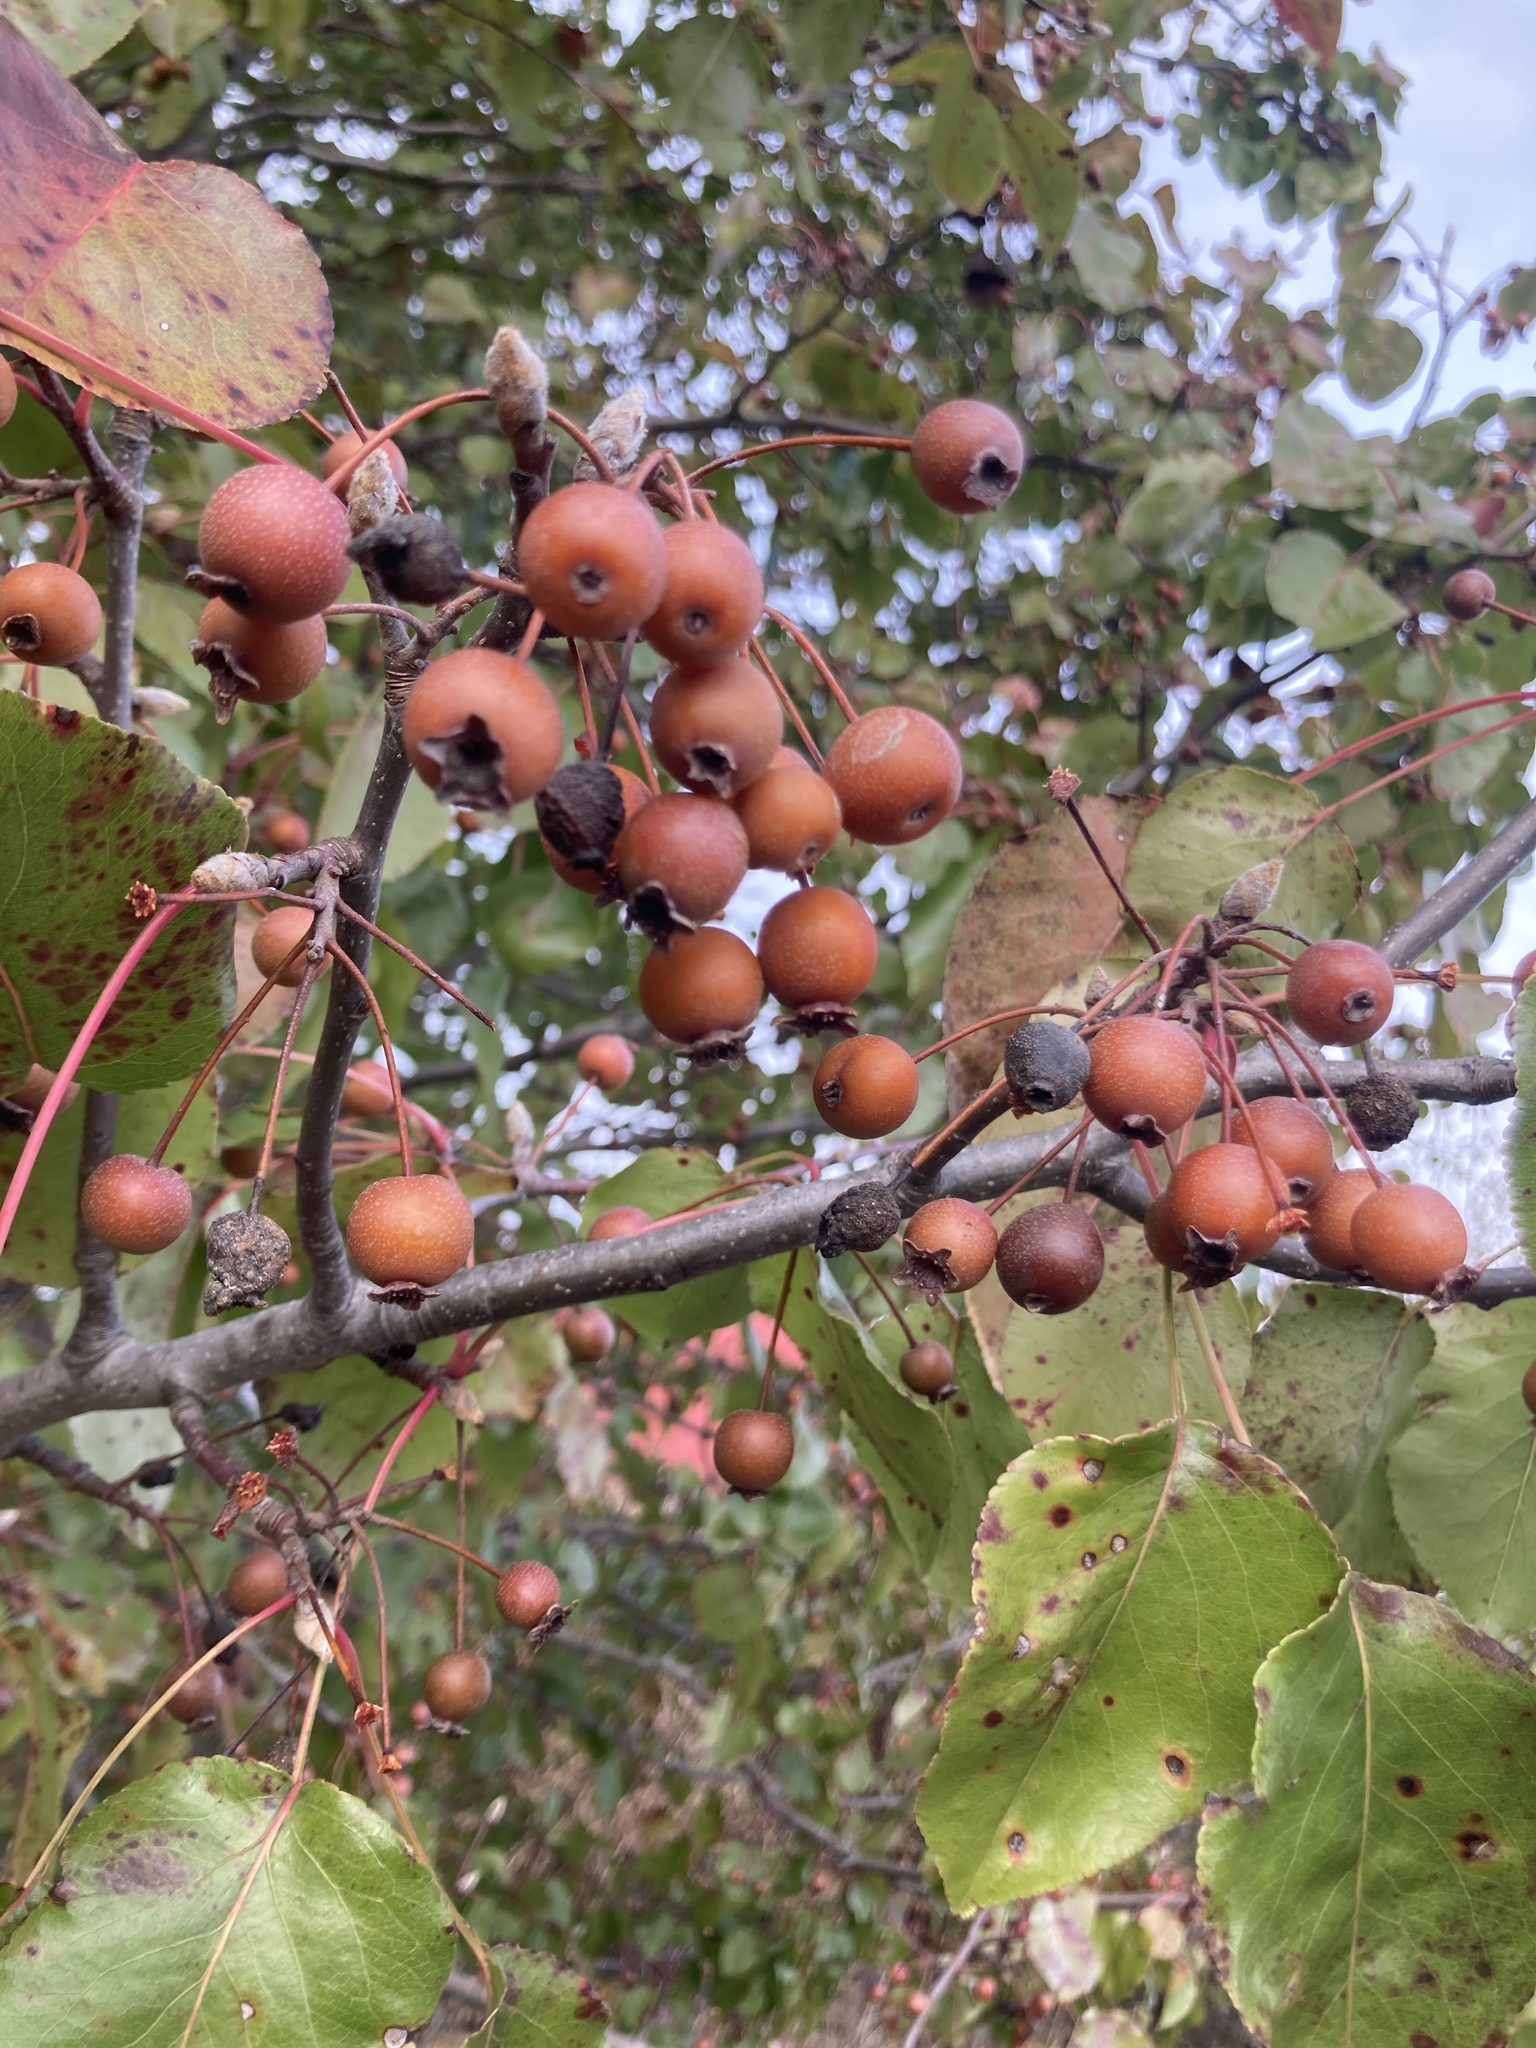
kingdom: Plantae
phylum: Tracheophyta
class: Magnoliopsida
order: Rosales
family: Rosaceae
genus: Pyrus
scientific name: Pyrus calleryana
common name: Callery pear
